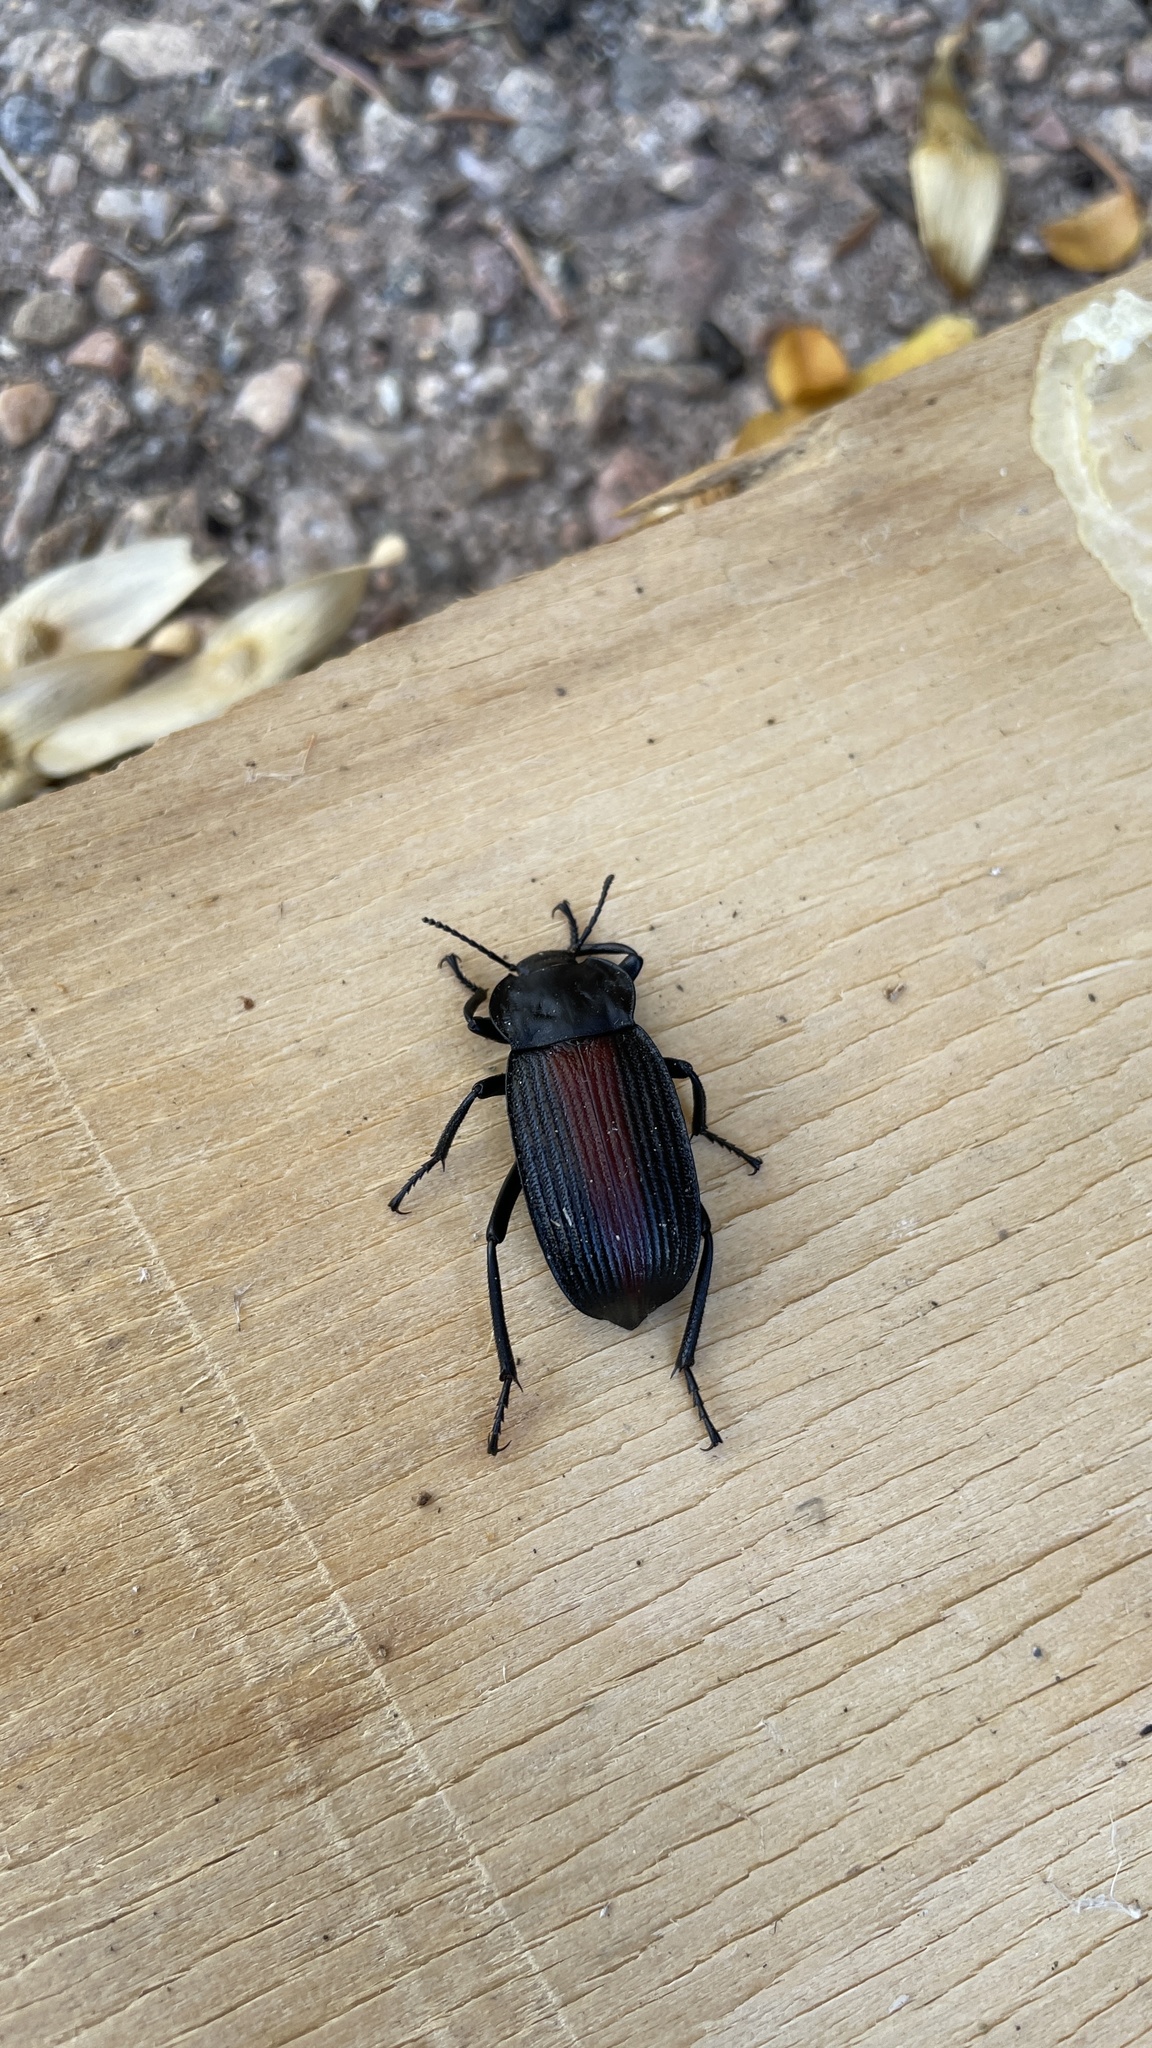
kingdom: Animalia
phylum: Arthropoda
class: Insecta
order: Coleoptera
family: Tenebrionidae
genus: Eleodes
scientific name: Eleodes suturalis
